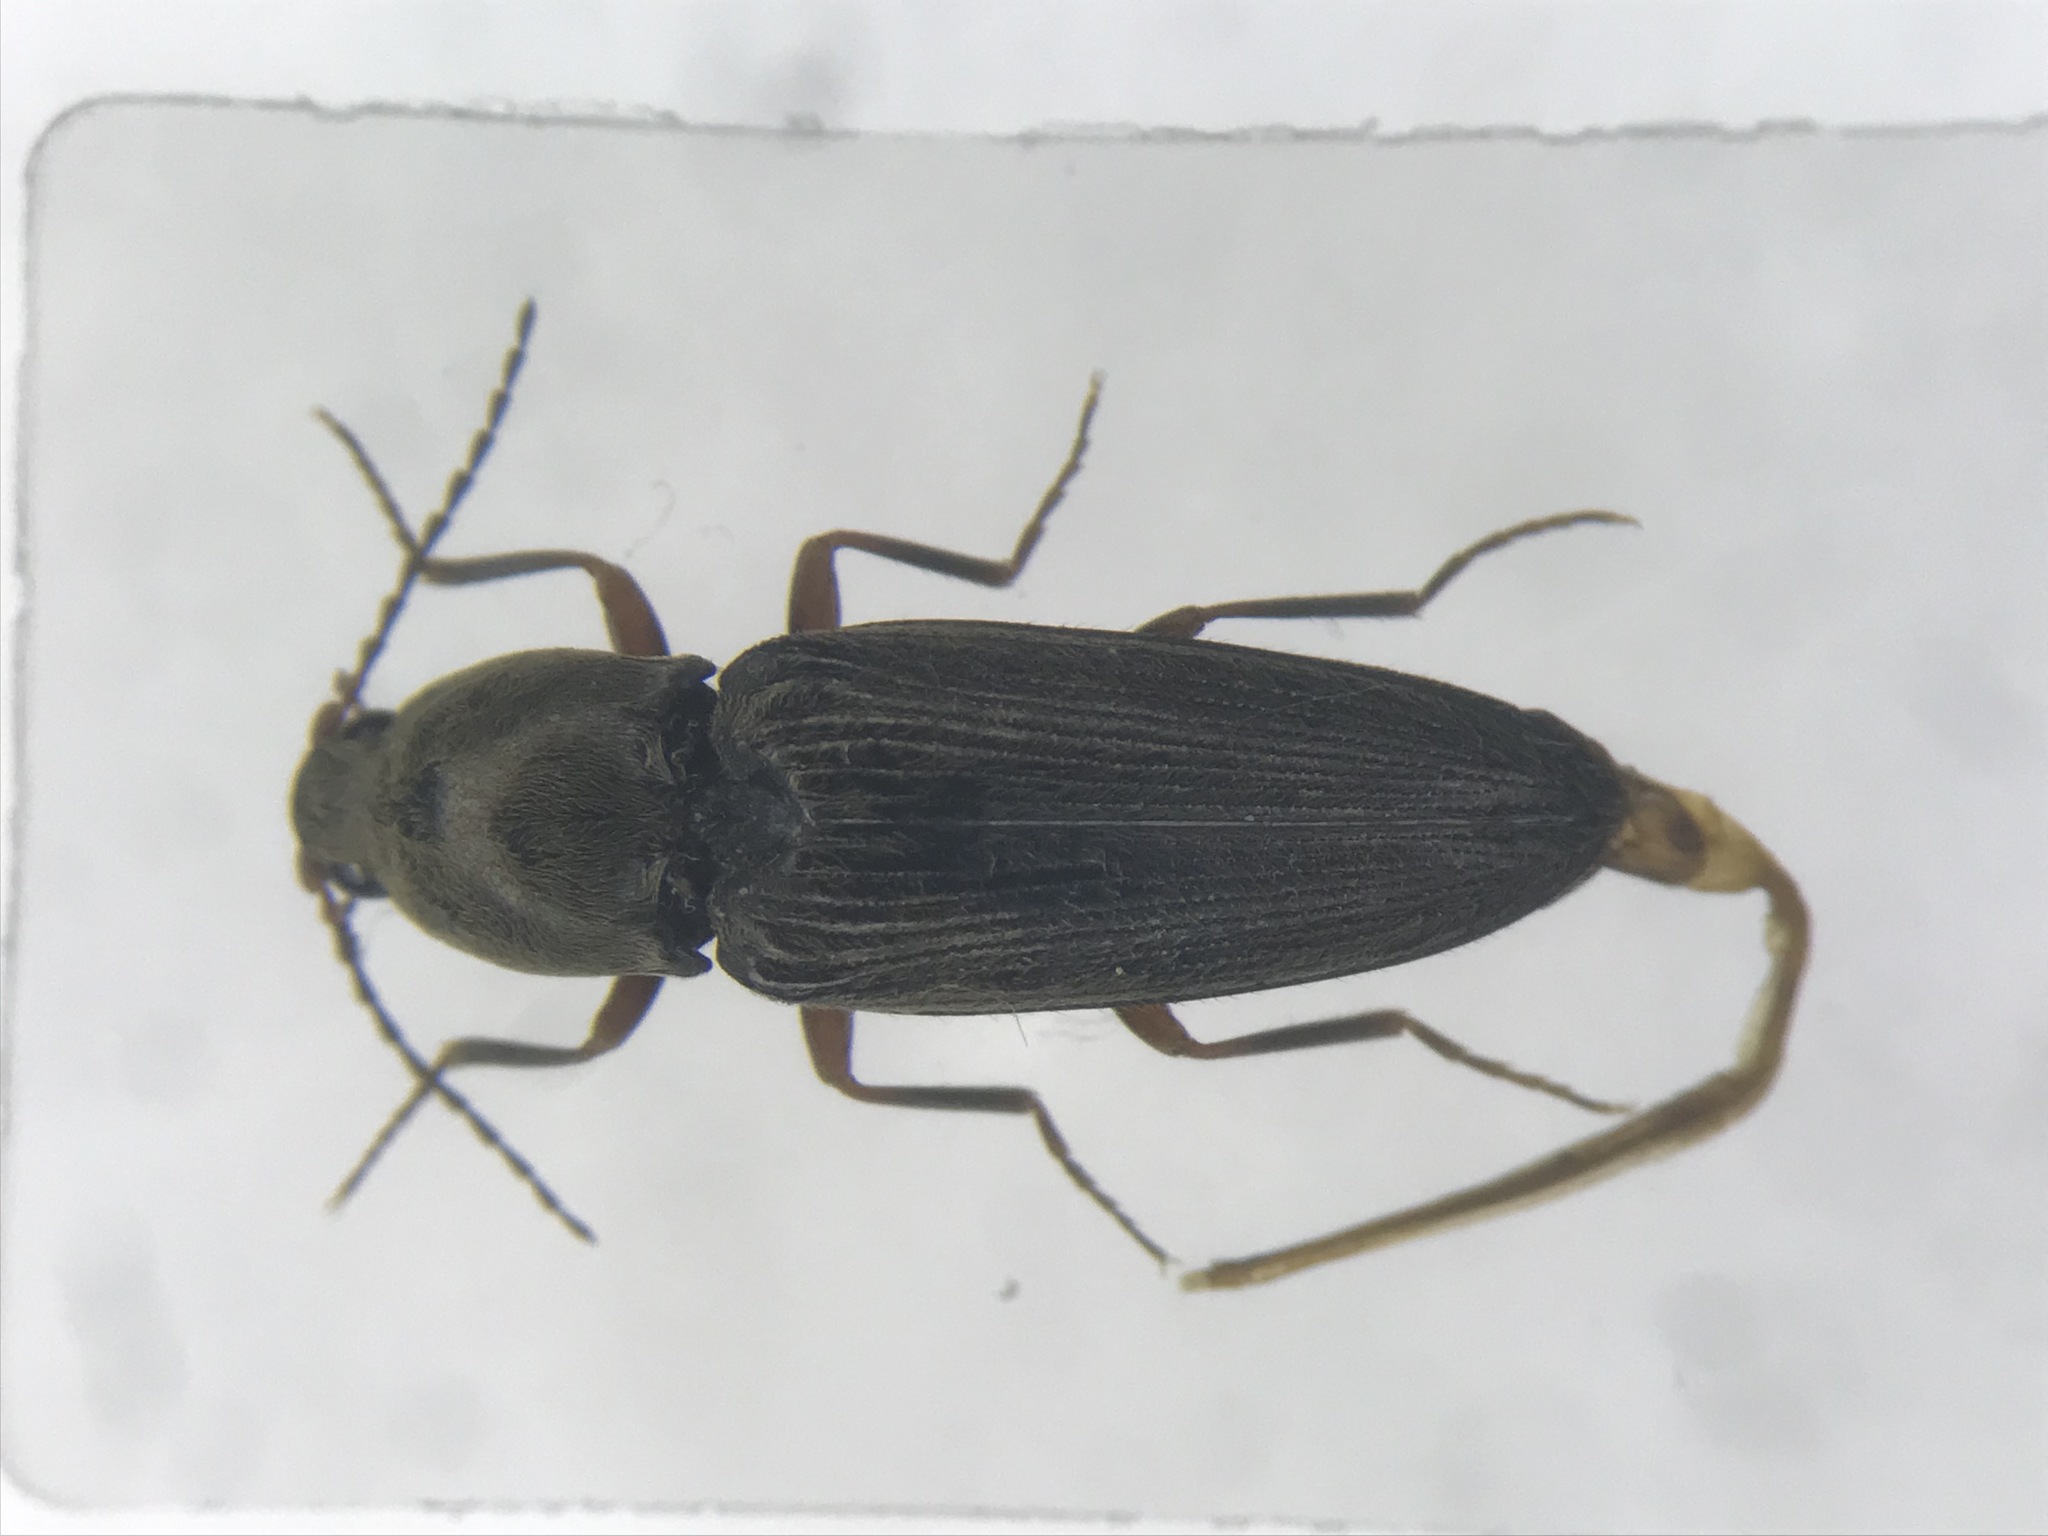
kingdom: Animalia
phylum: Arthropoda
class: Insecta
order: Coleoptera
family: Elateridae
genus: Cardiophorus
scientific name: Cardiophorus convexus
